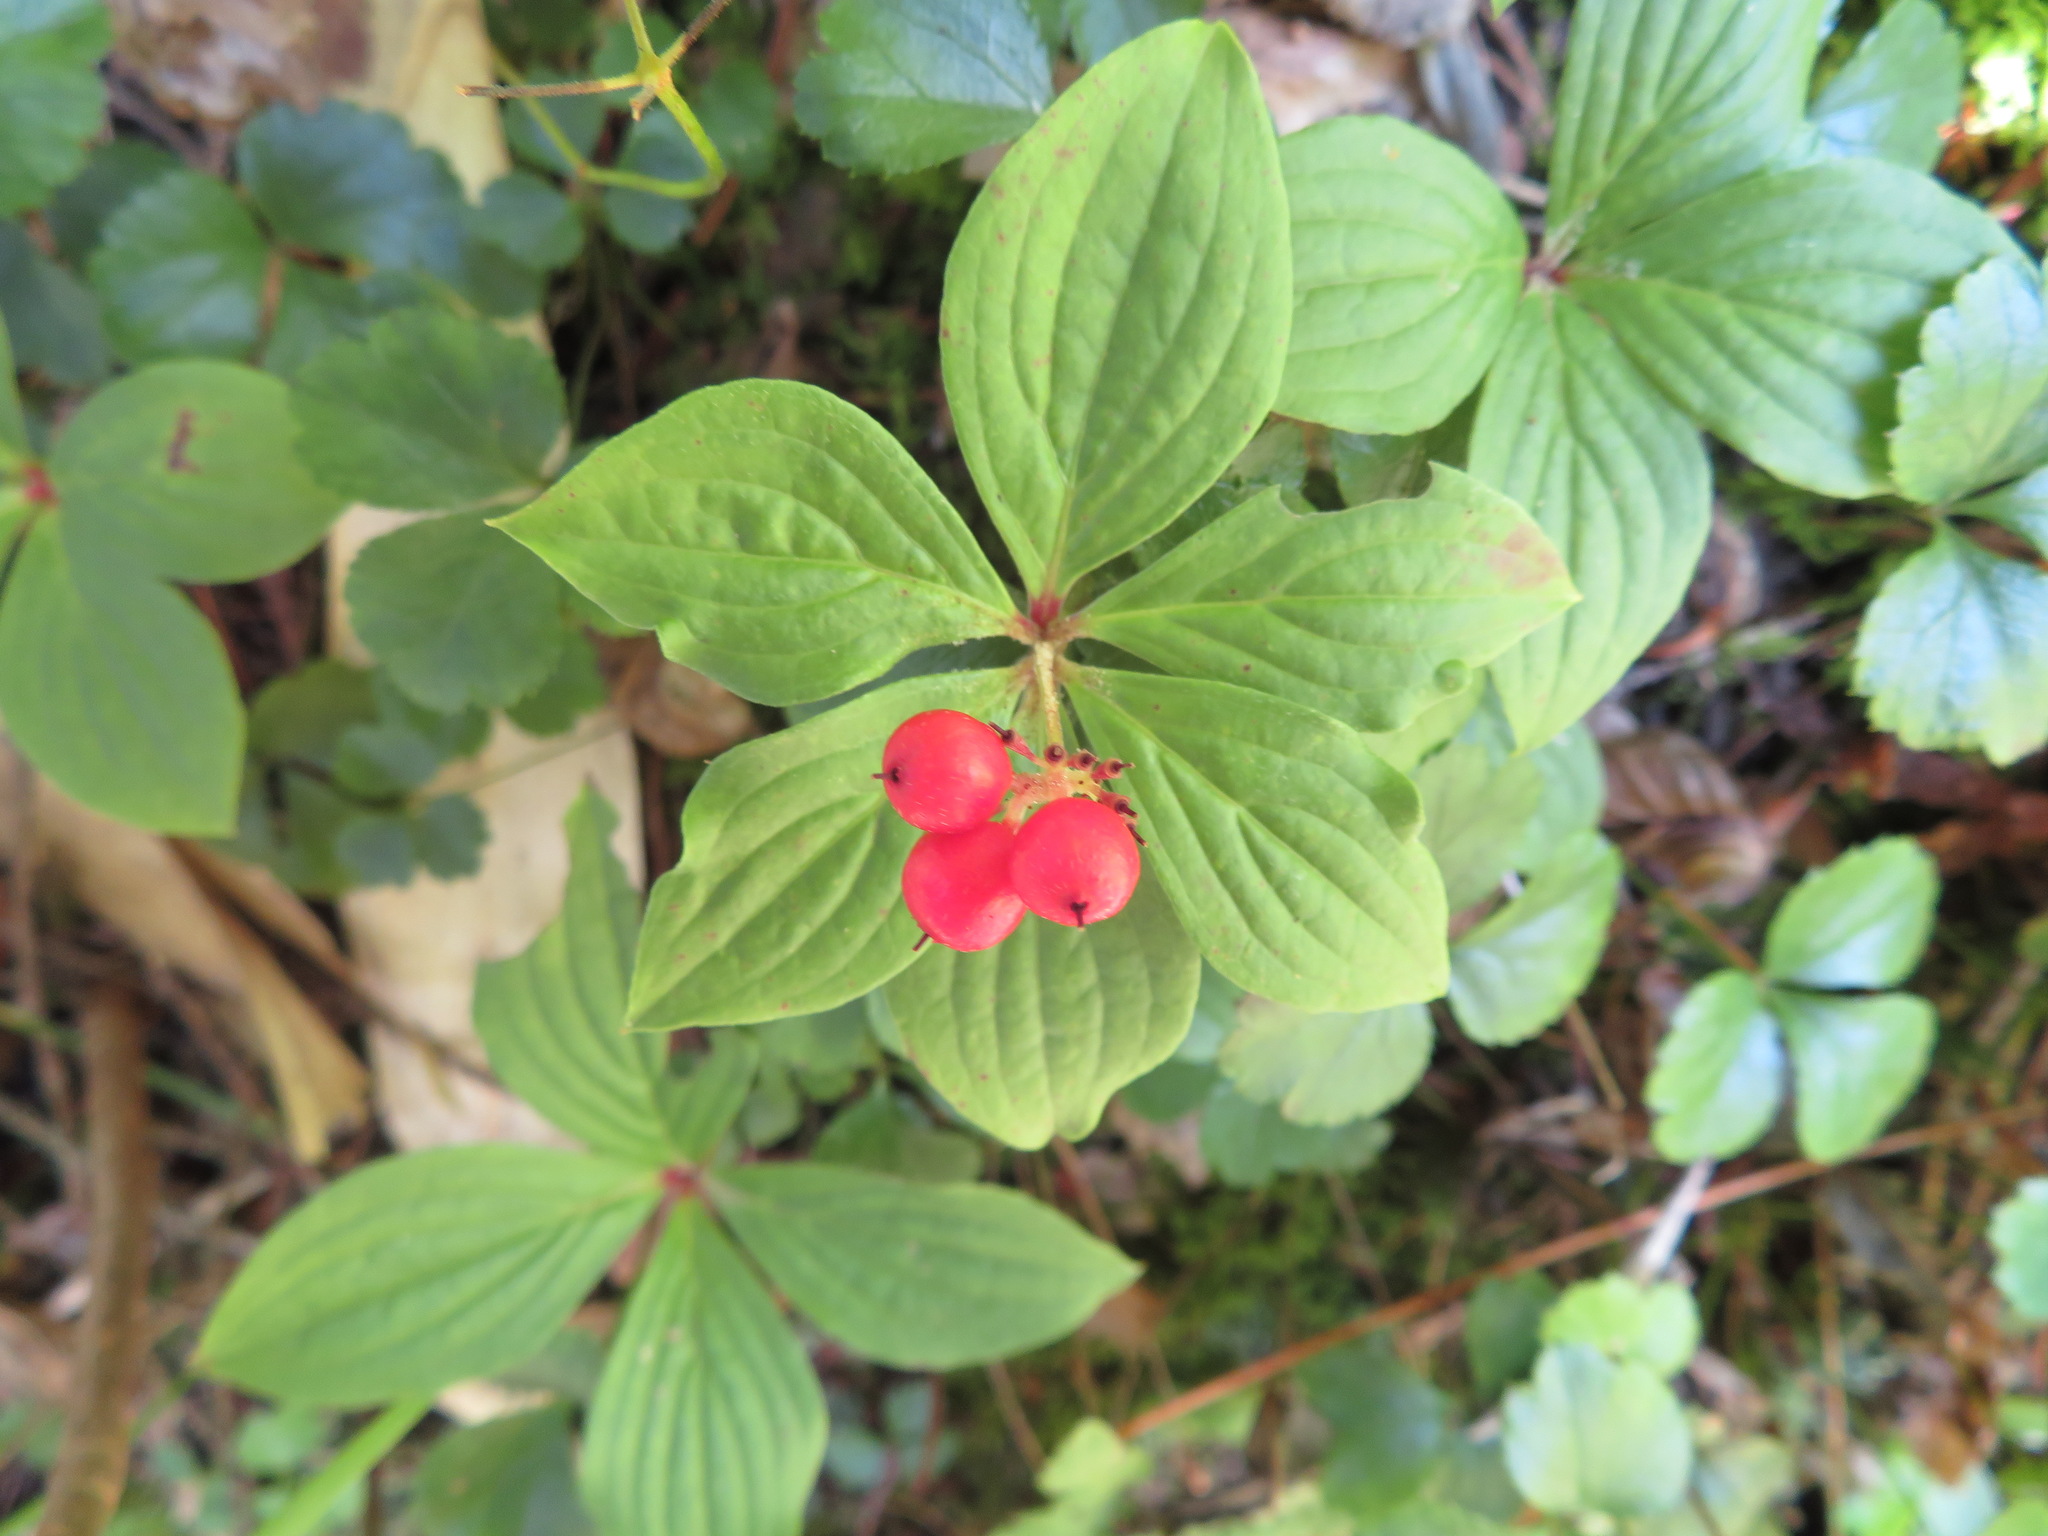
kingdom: Plantae
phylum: Tracheophyta
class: Magnoliopsida
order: Cornales
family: Cornaceae
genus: Cornus
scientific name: Cornus canadensis
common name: Creeping dogwood
